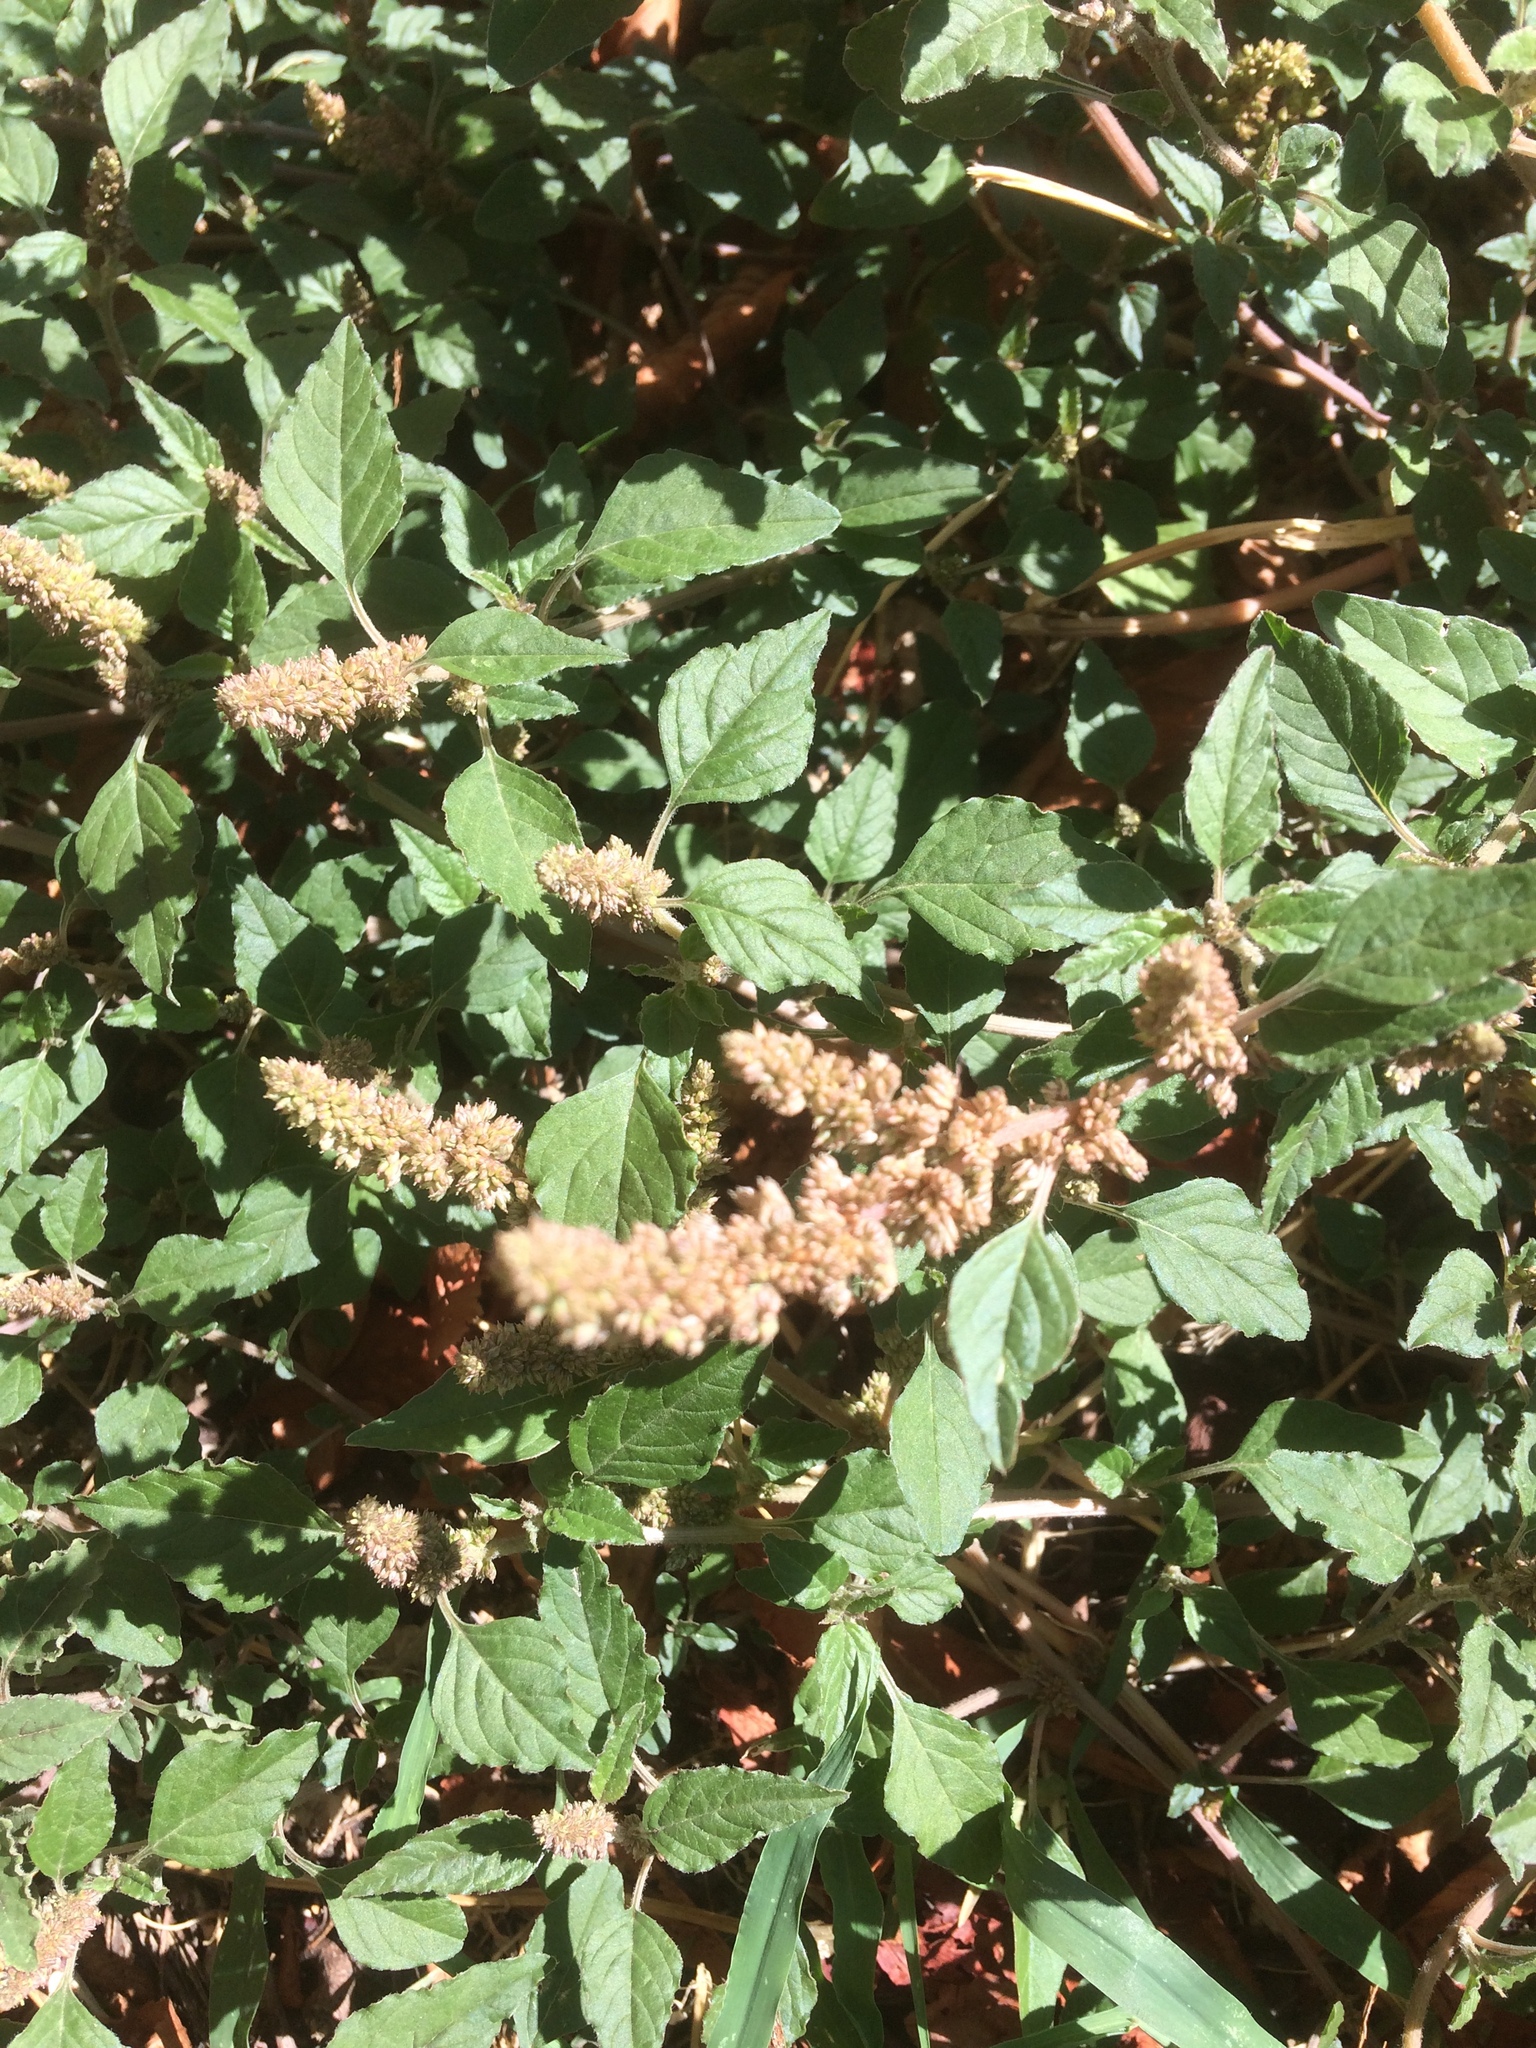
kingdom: Plantae
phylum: Tracheophyta
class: Magnoliopsida
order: Caryophyllales
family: Amaranthaceae
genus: Amaranthus
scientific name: Amaranthus retroflexus
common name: Redroot amaranth
